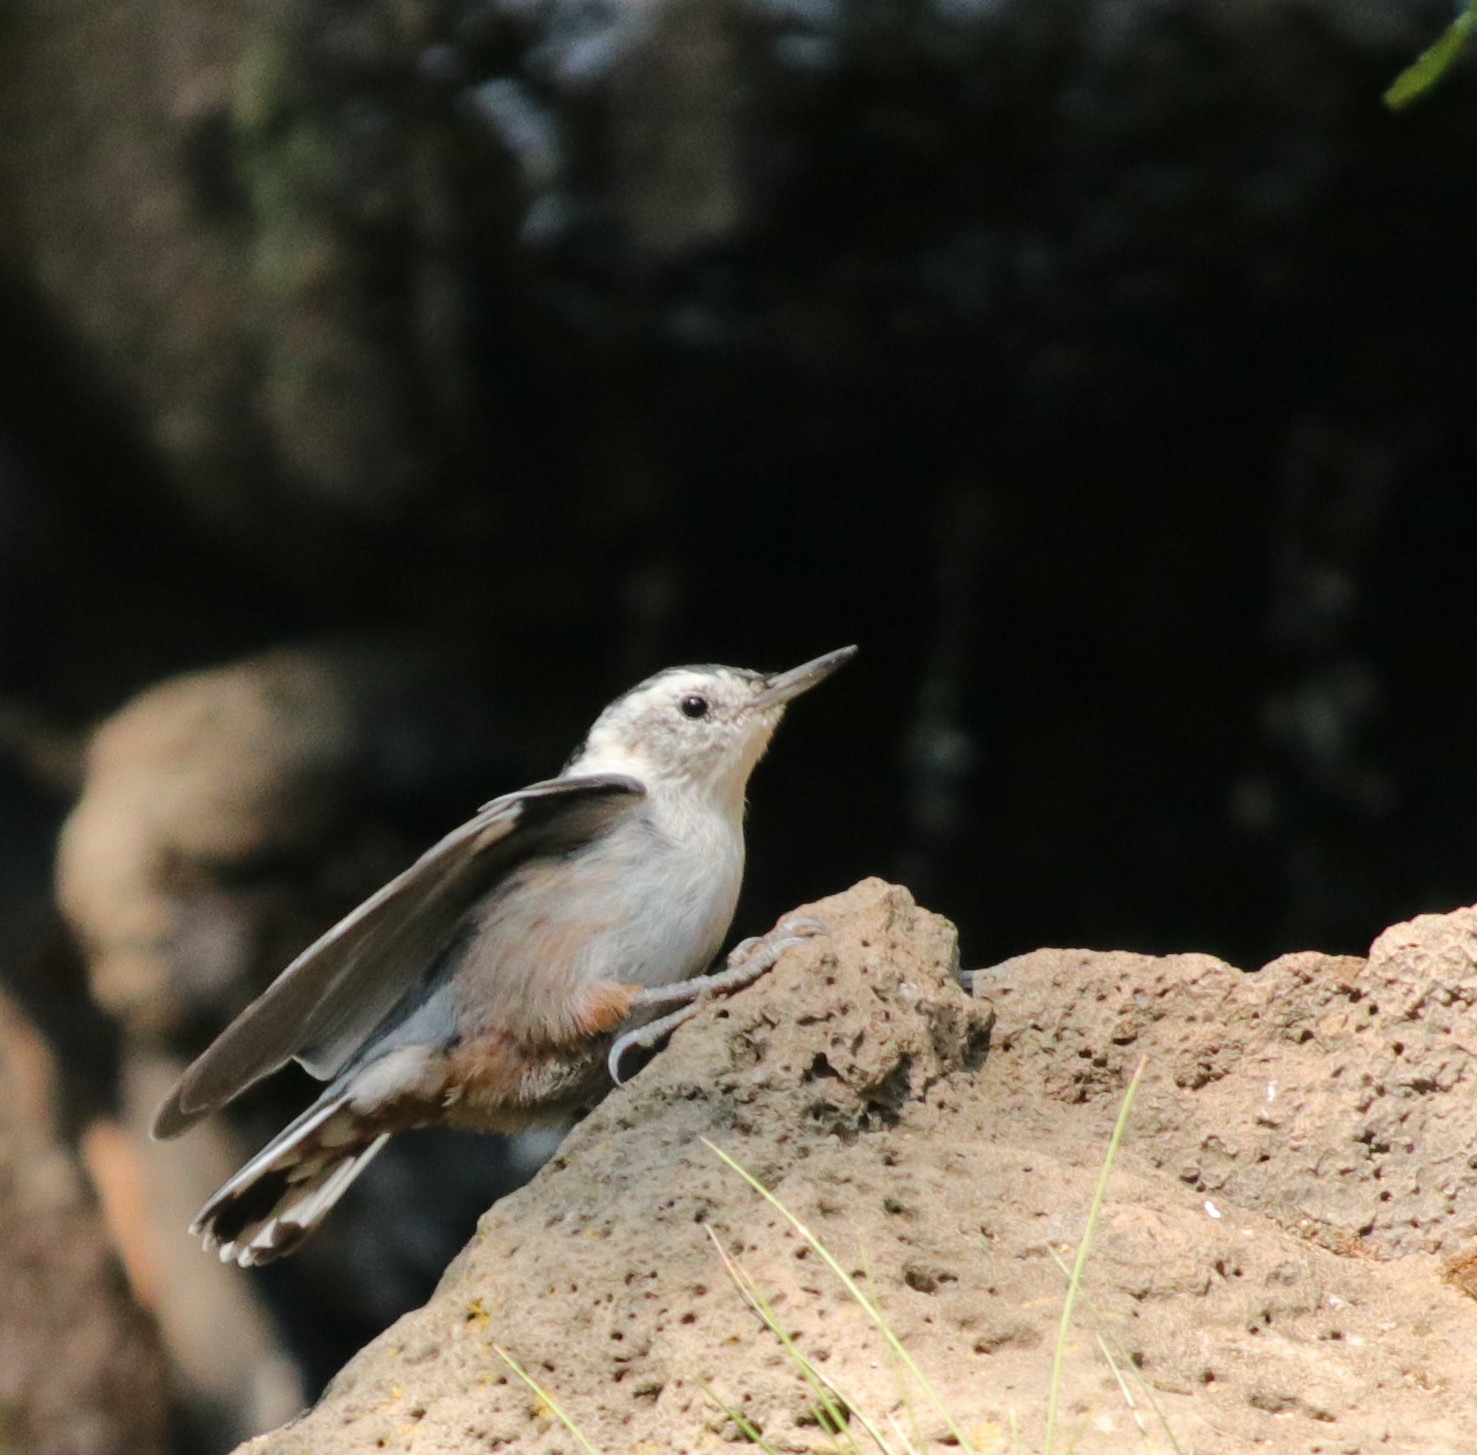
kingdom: Animalia
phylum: Chordata
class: Aves
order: Passeriformes
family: Sittidae
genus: Sitta
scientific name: Sitta carolinensis
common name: White-breasted nuthatch
